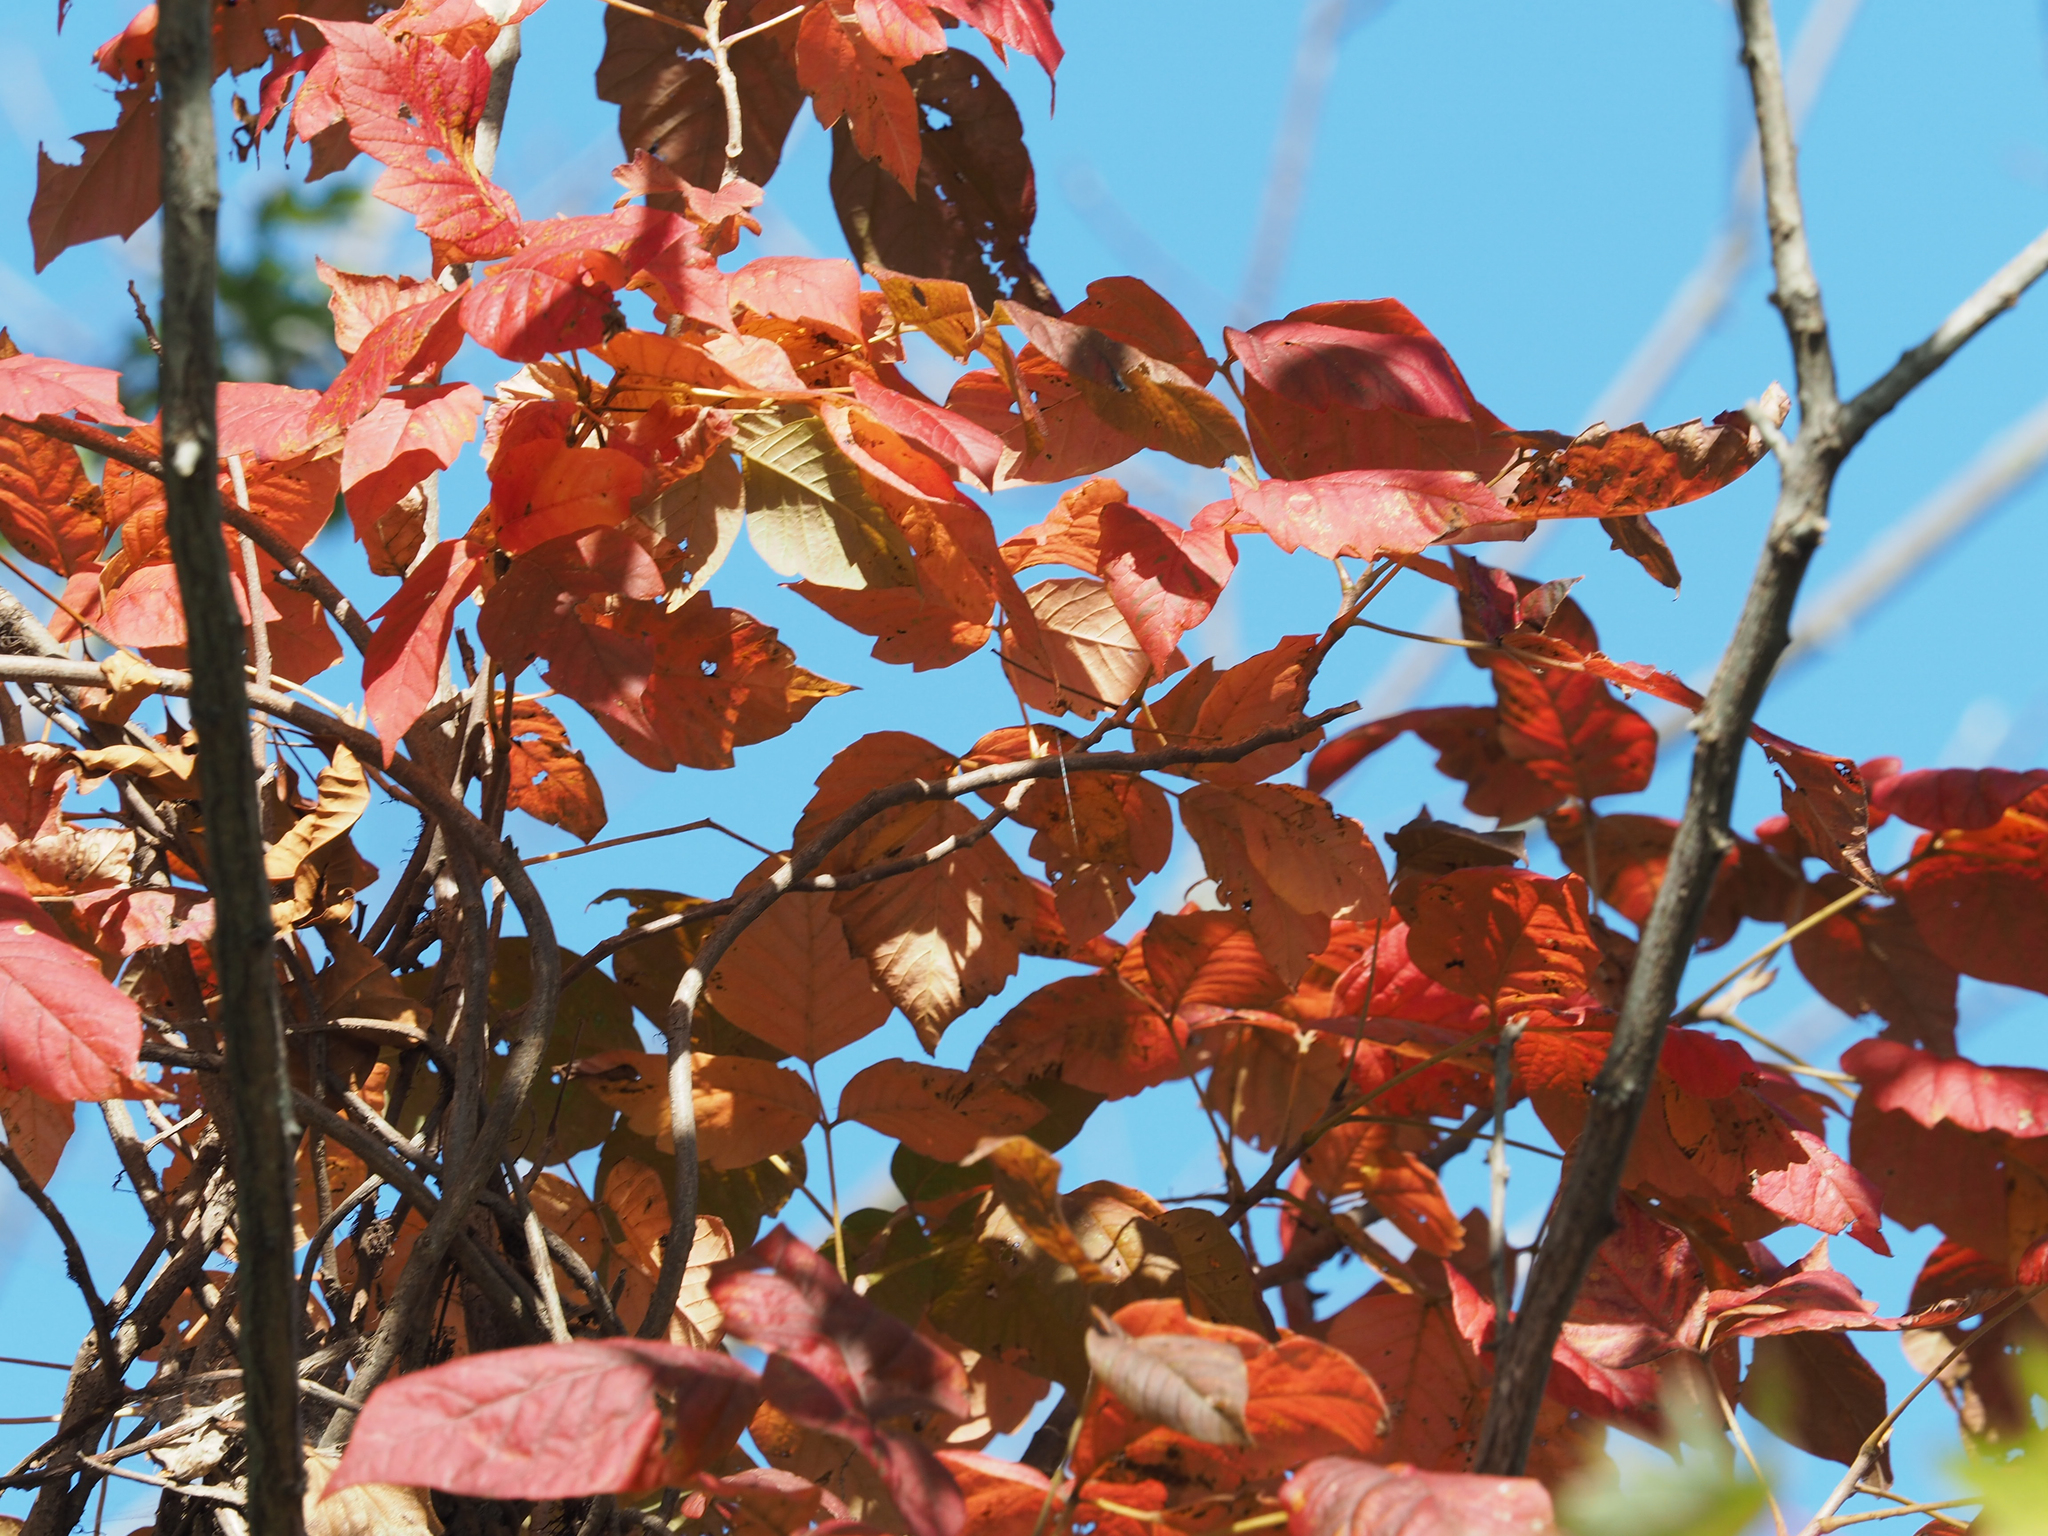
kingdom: Plantae
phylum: Tracheophyta
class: Magnoliopsida
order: Sapindales
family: Anacardiaceae
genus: Toxicodendron
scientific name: Toxicodendron radicans
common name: Poison ivy
